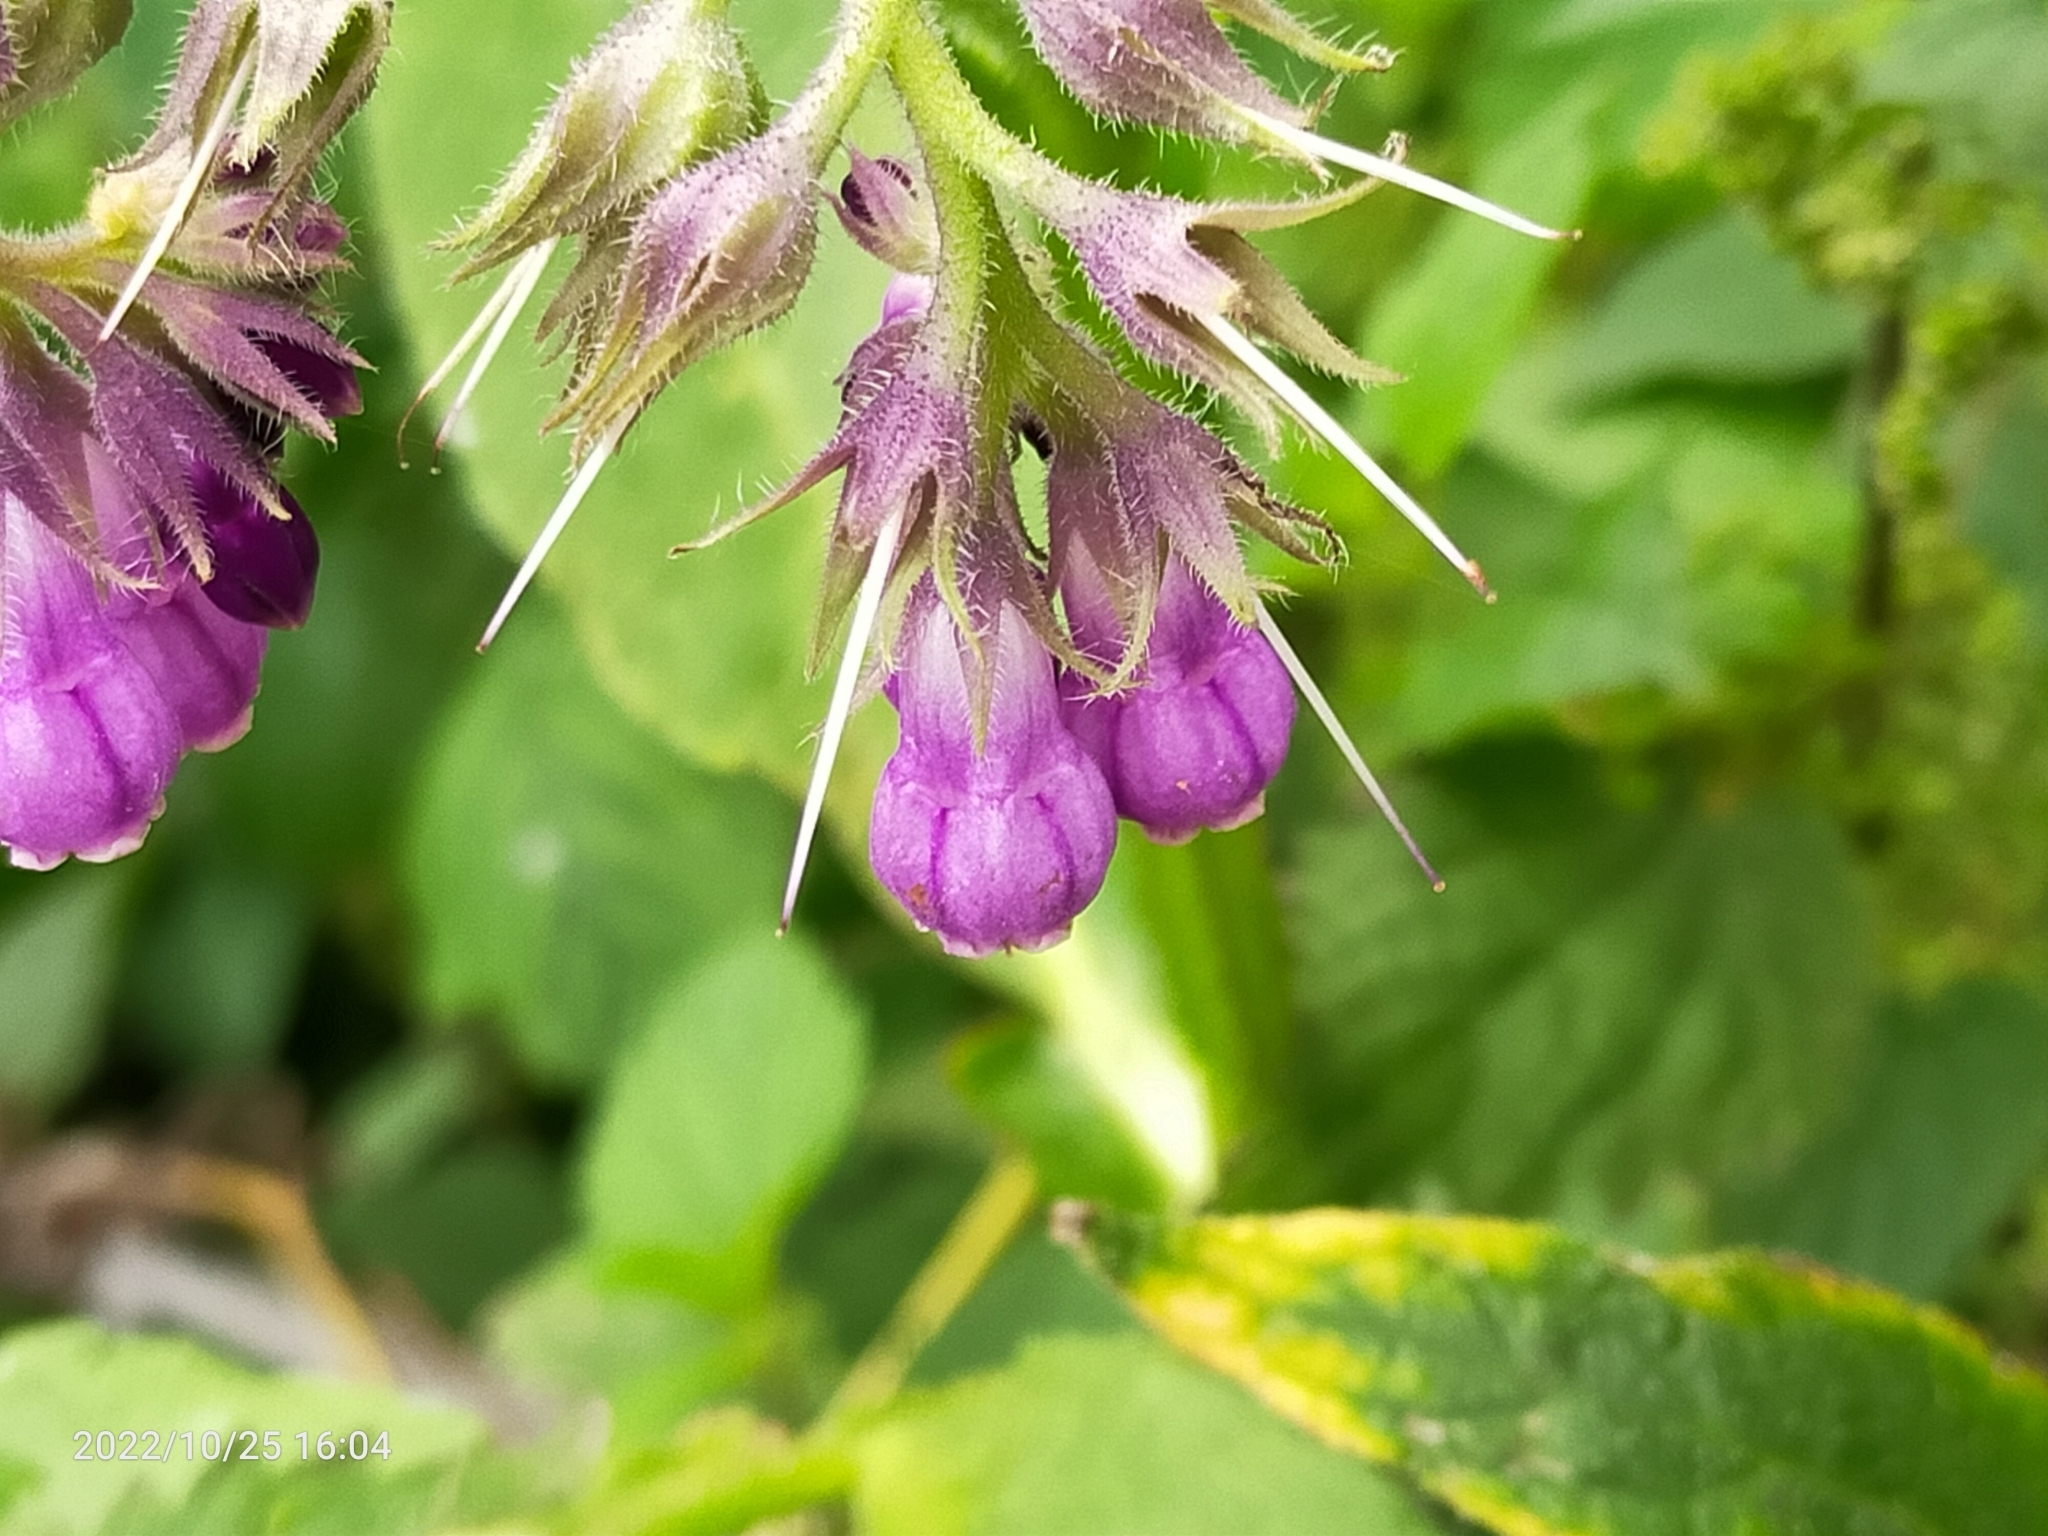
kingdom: Plantae
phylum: Tracheophyta
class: Magnoliopsida
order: Boraginales
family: Boraginaceae
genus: Symphytum
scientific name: Symphytum officinale
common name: Common comfrey
